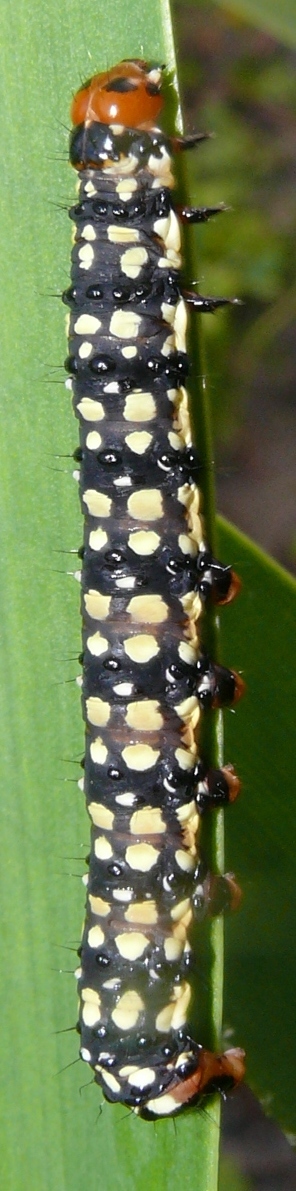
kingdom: Animalia
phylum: Arthropoda
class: Insecta
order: Lepidoptera
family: Noctuidae
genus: Brithys
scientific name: Brithys crini
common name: Kew arches
